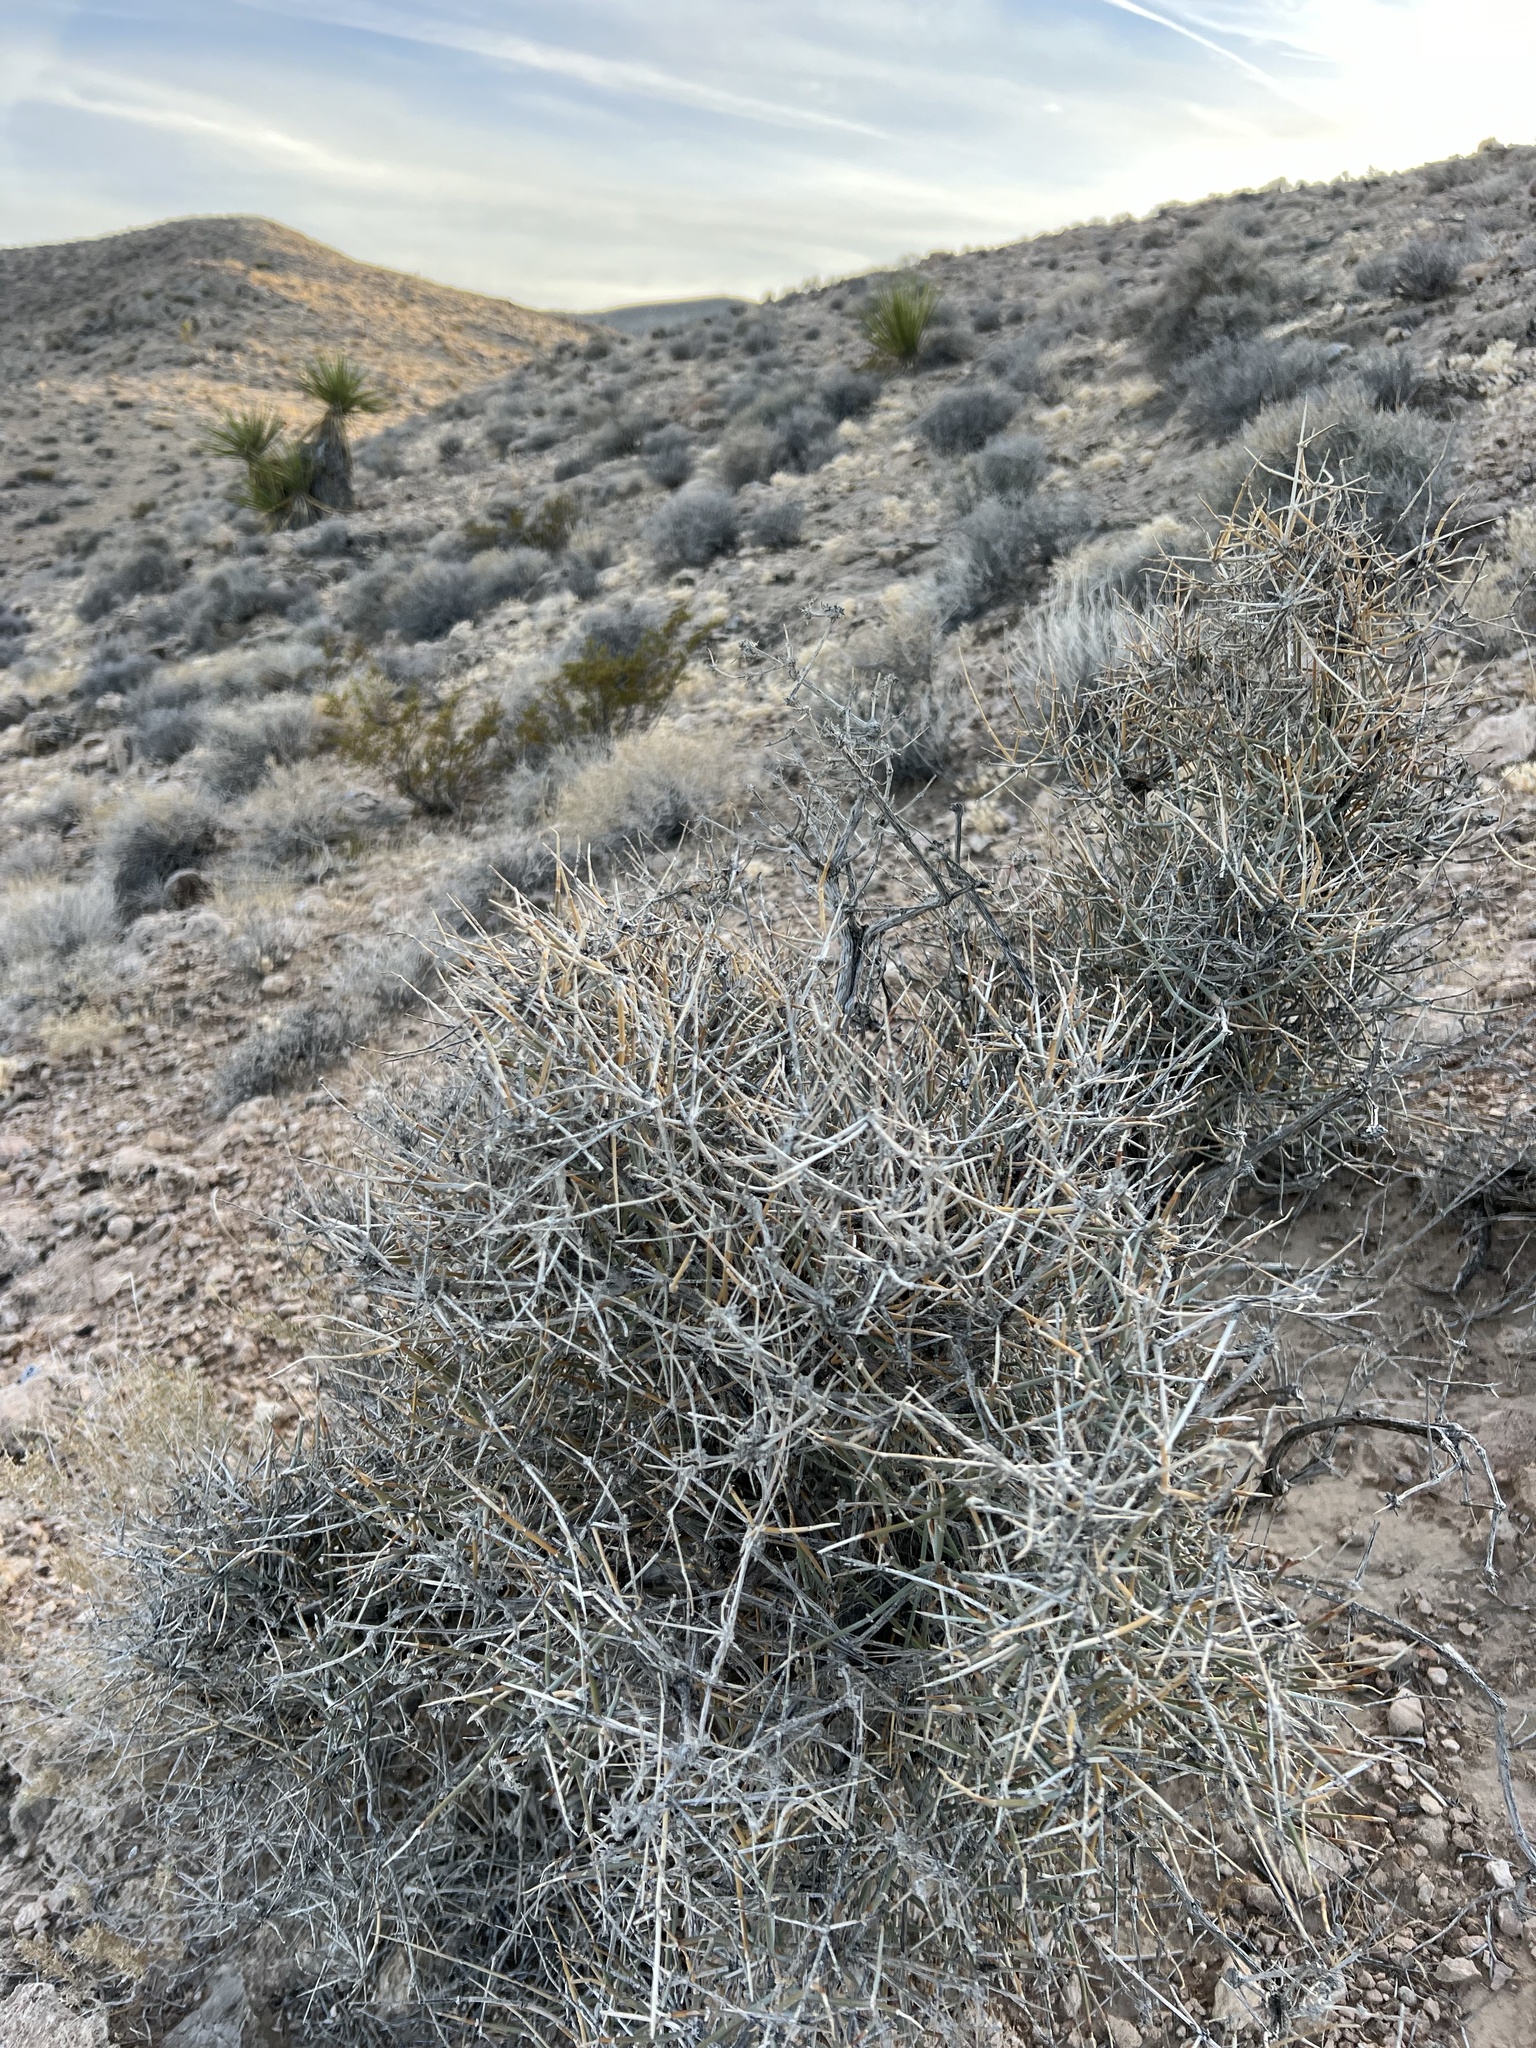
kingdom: Plantae
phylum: Tracheophyta
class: Gnetopsida
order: Ephedrales
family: Ephedraceae
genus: Ephedra
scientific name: Ephedra nevadensis
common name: Gray ephedra
